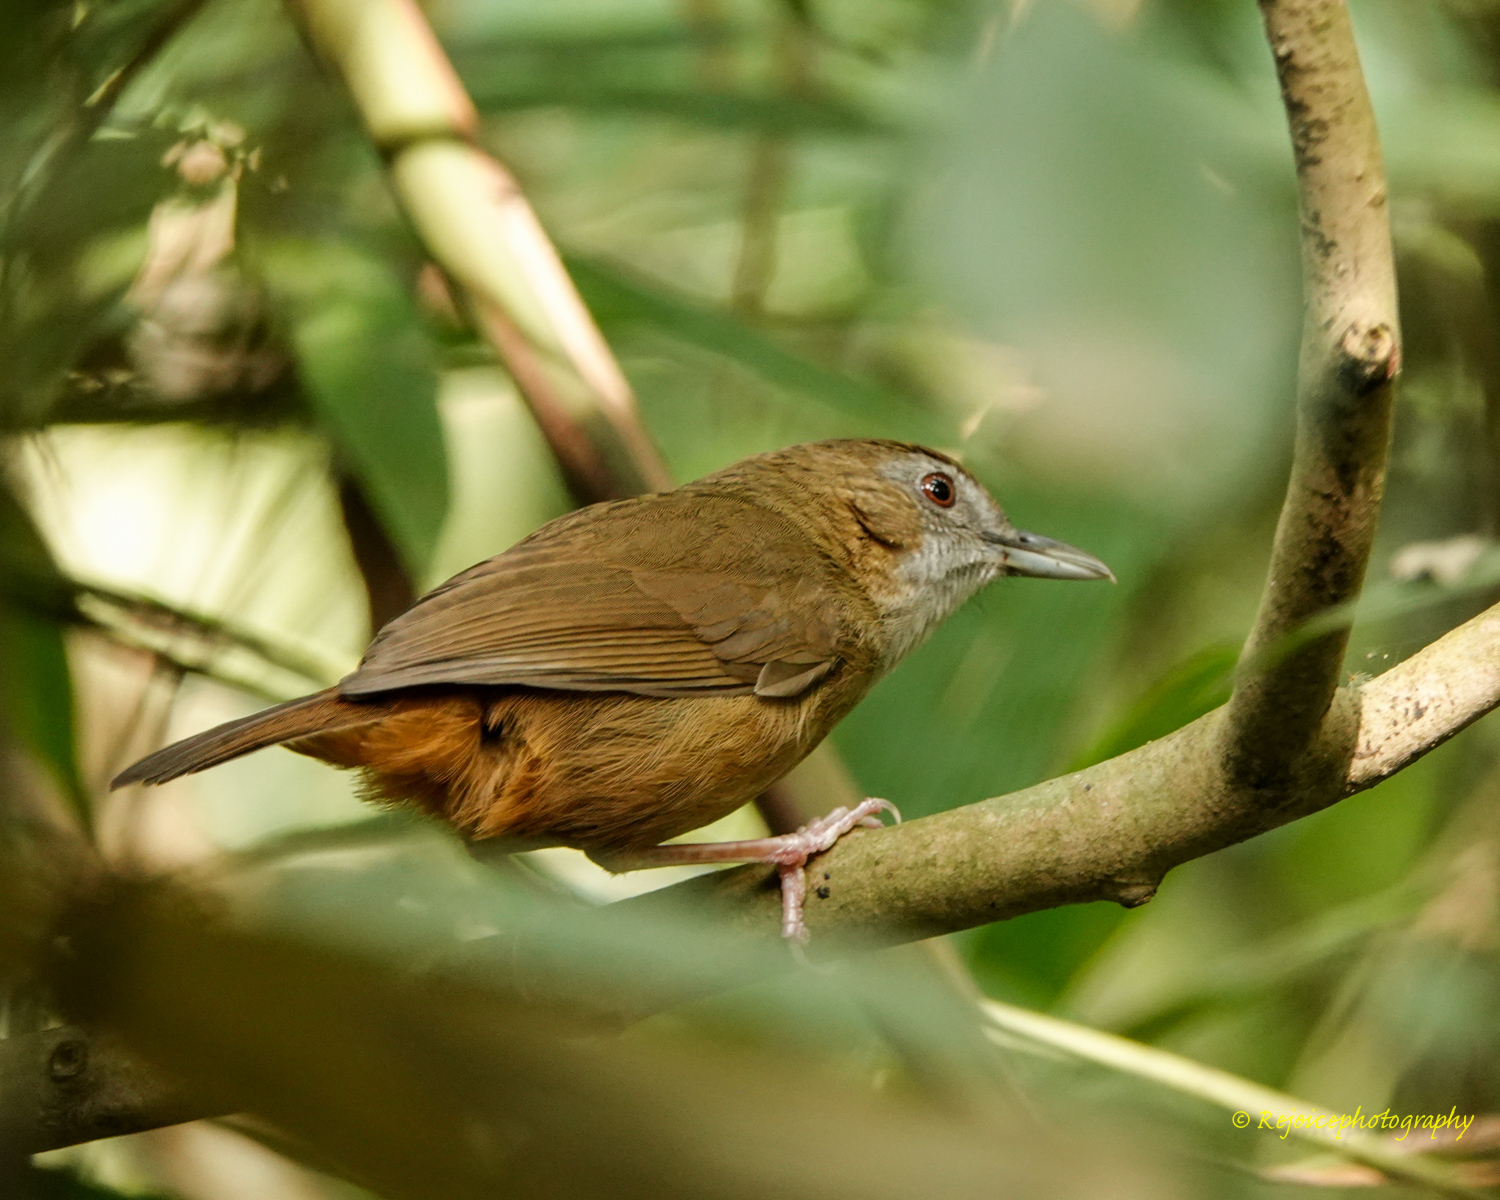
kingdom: Animalia
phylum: Chordata
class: Aves
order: Passeriformes
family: Pellorneidae
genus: Malacocincla
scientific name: Malacocincla abbotti
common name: Abbott's babbler
